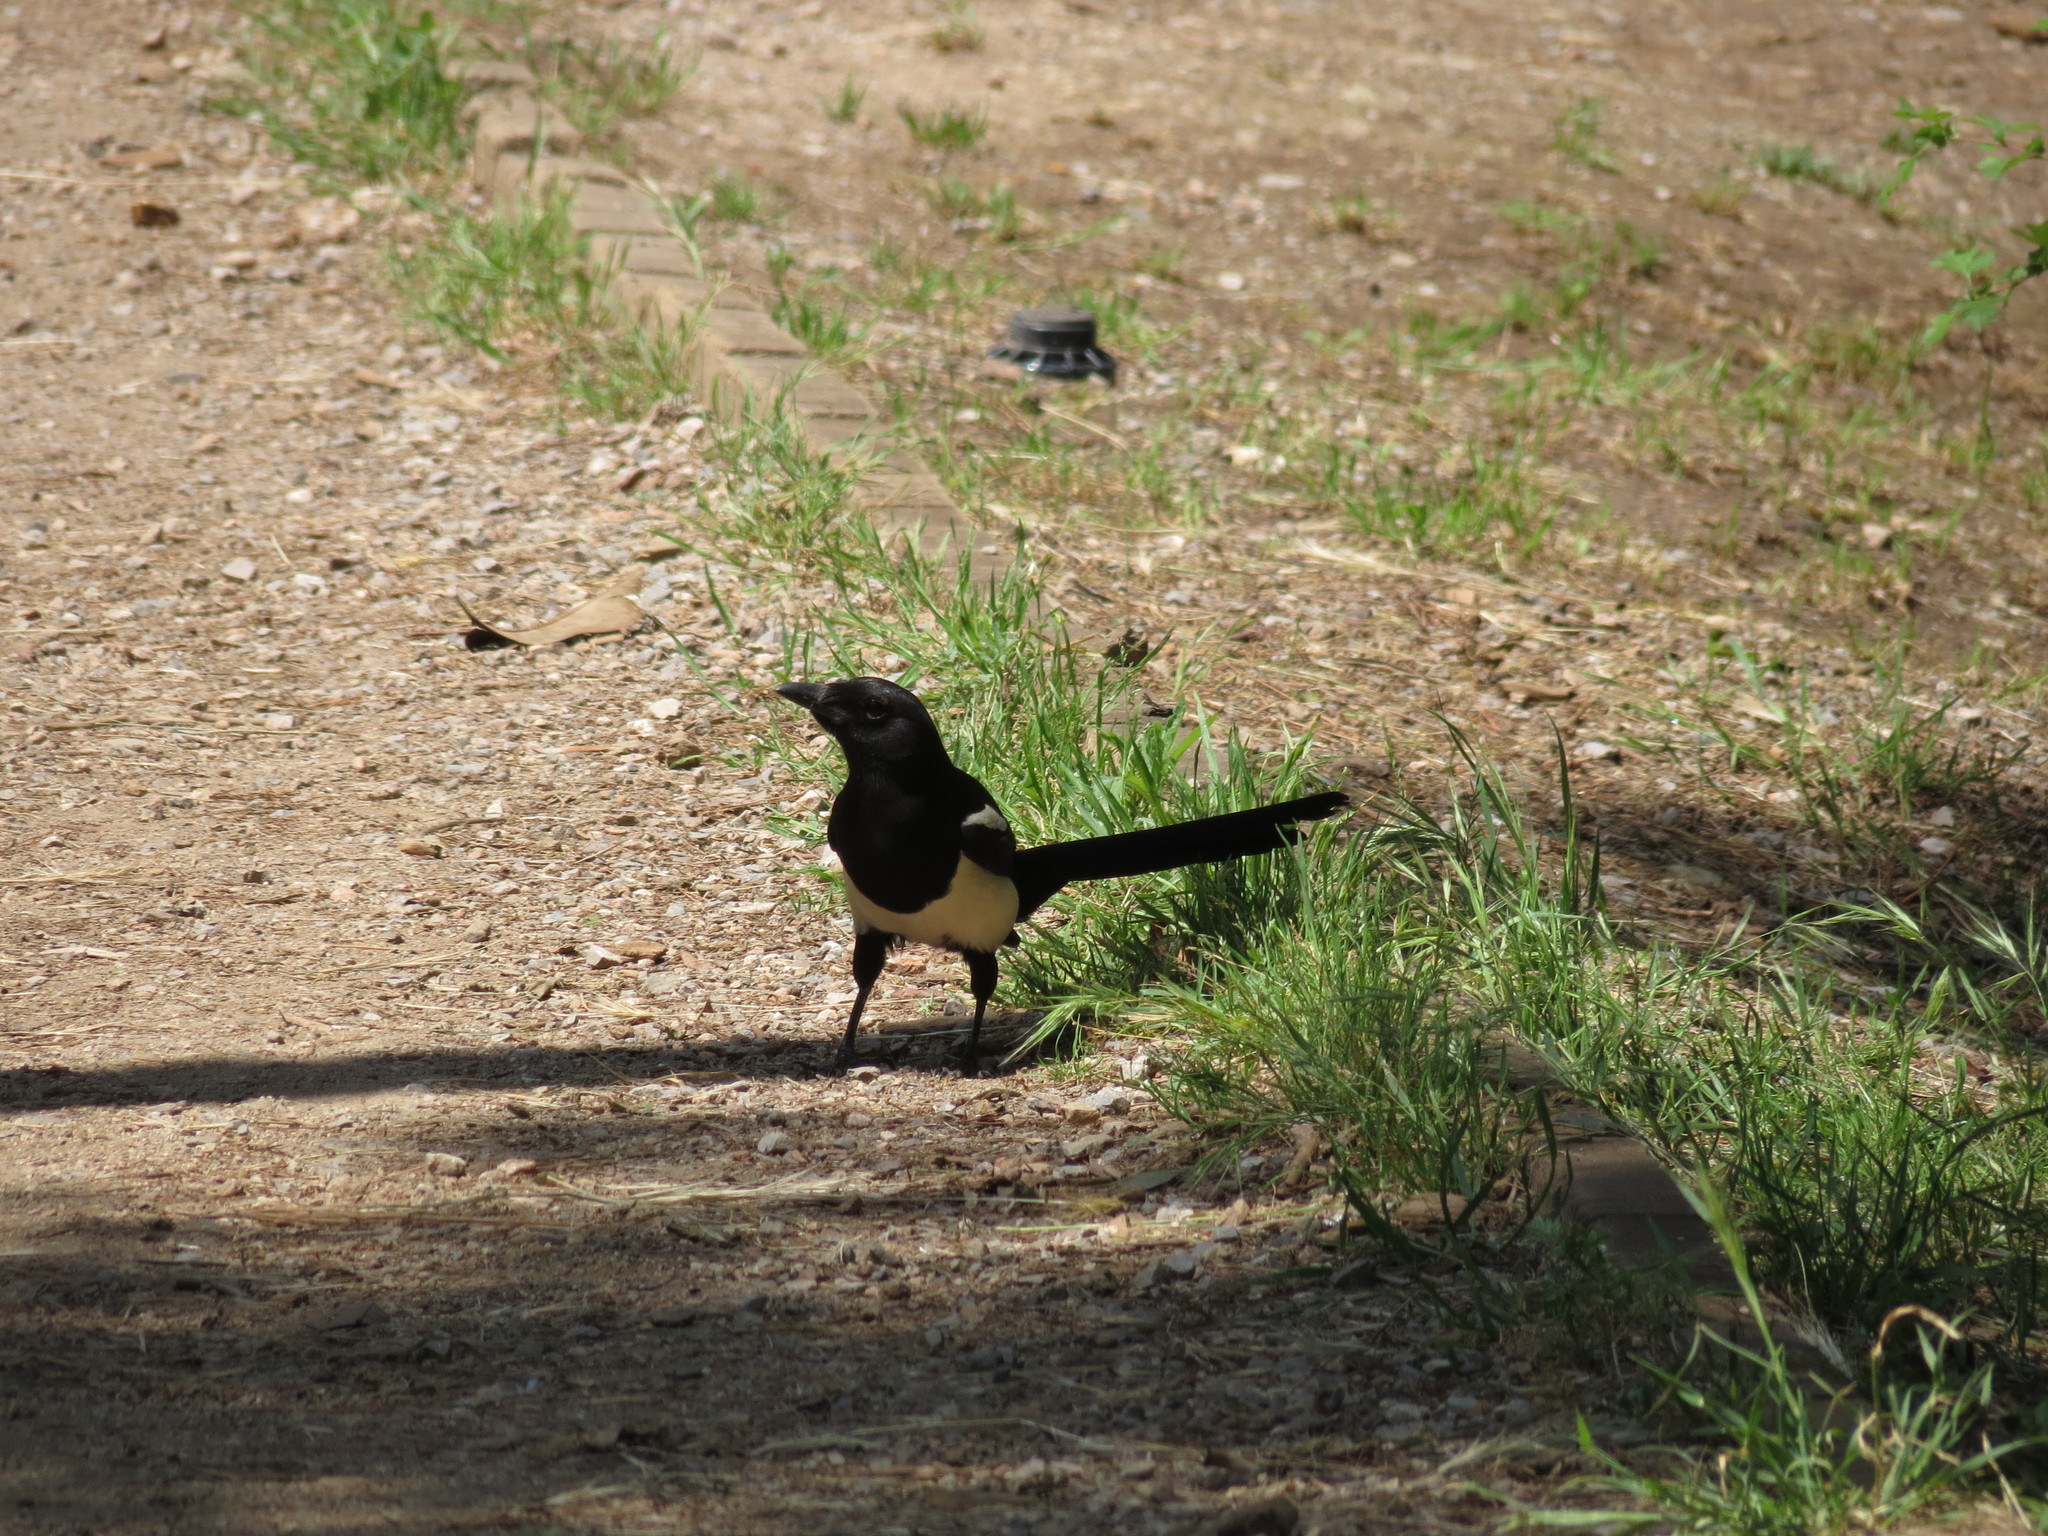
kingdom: Animalia
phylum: Chordata
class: Aves
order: Passeriformes
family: Corvidae
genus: Pica
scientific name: Pica pica
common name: Eurasian magpie
